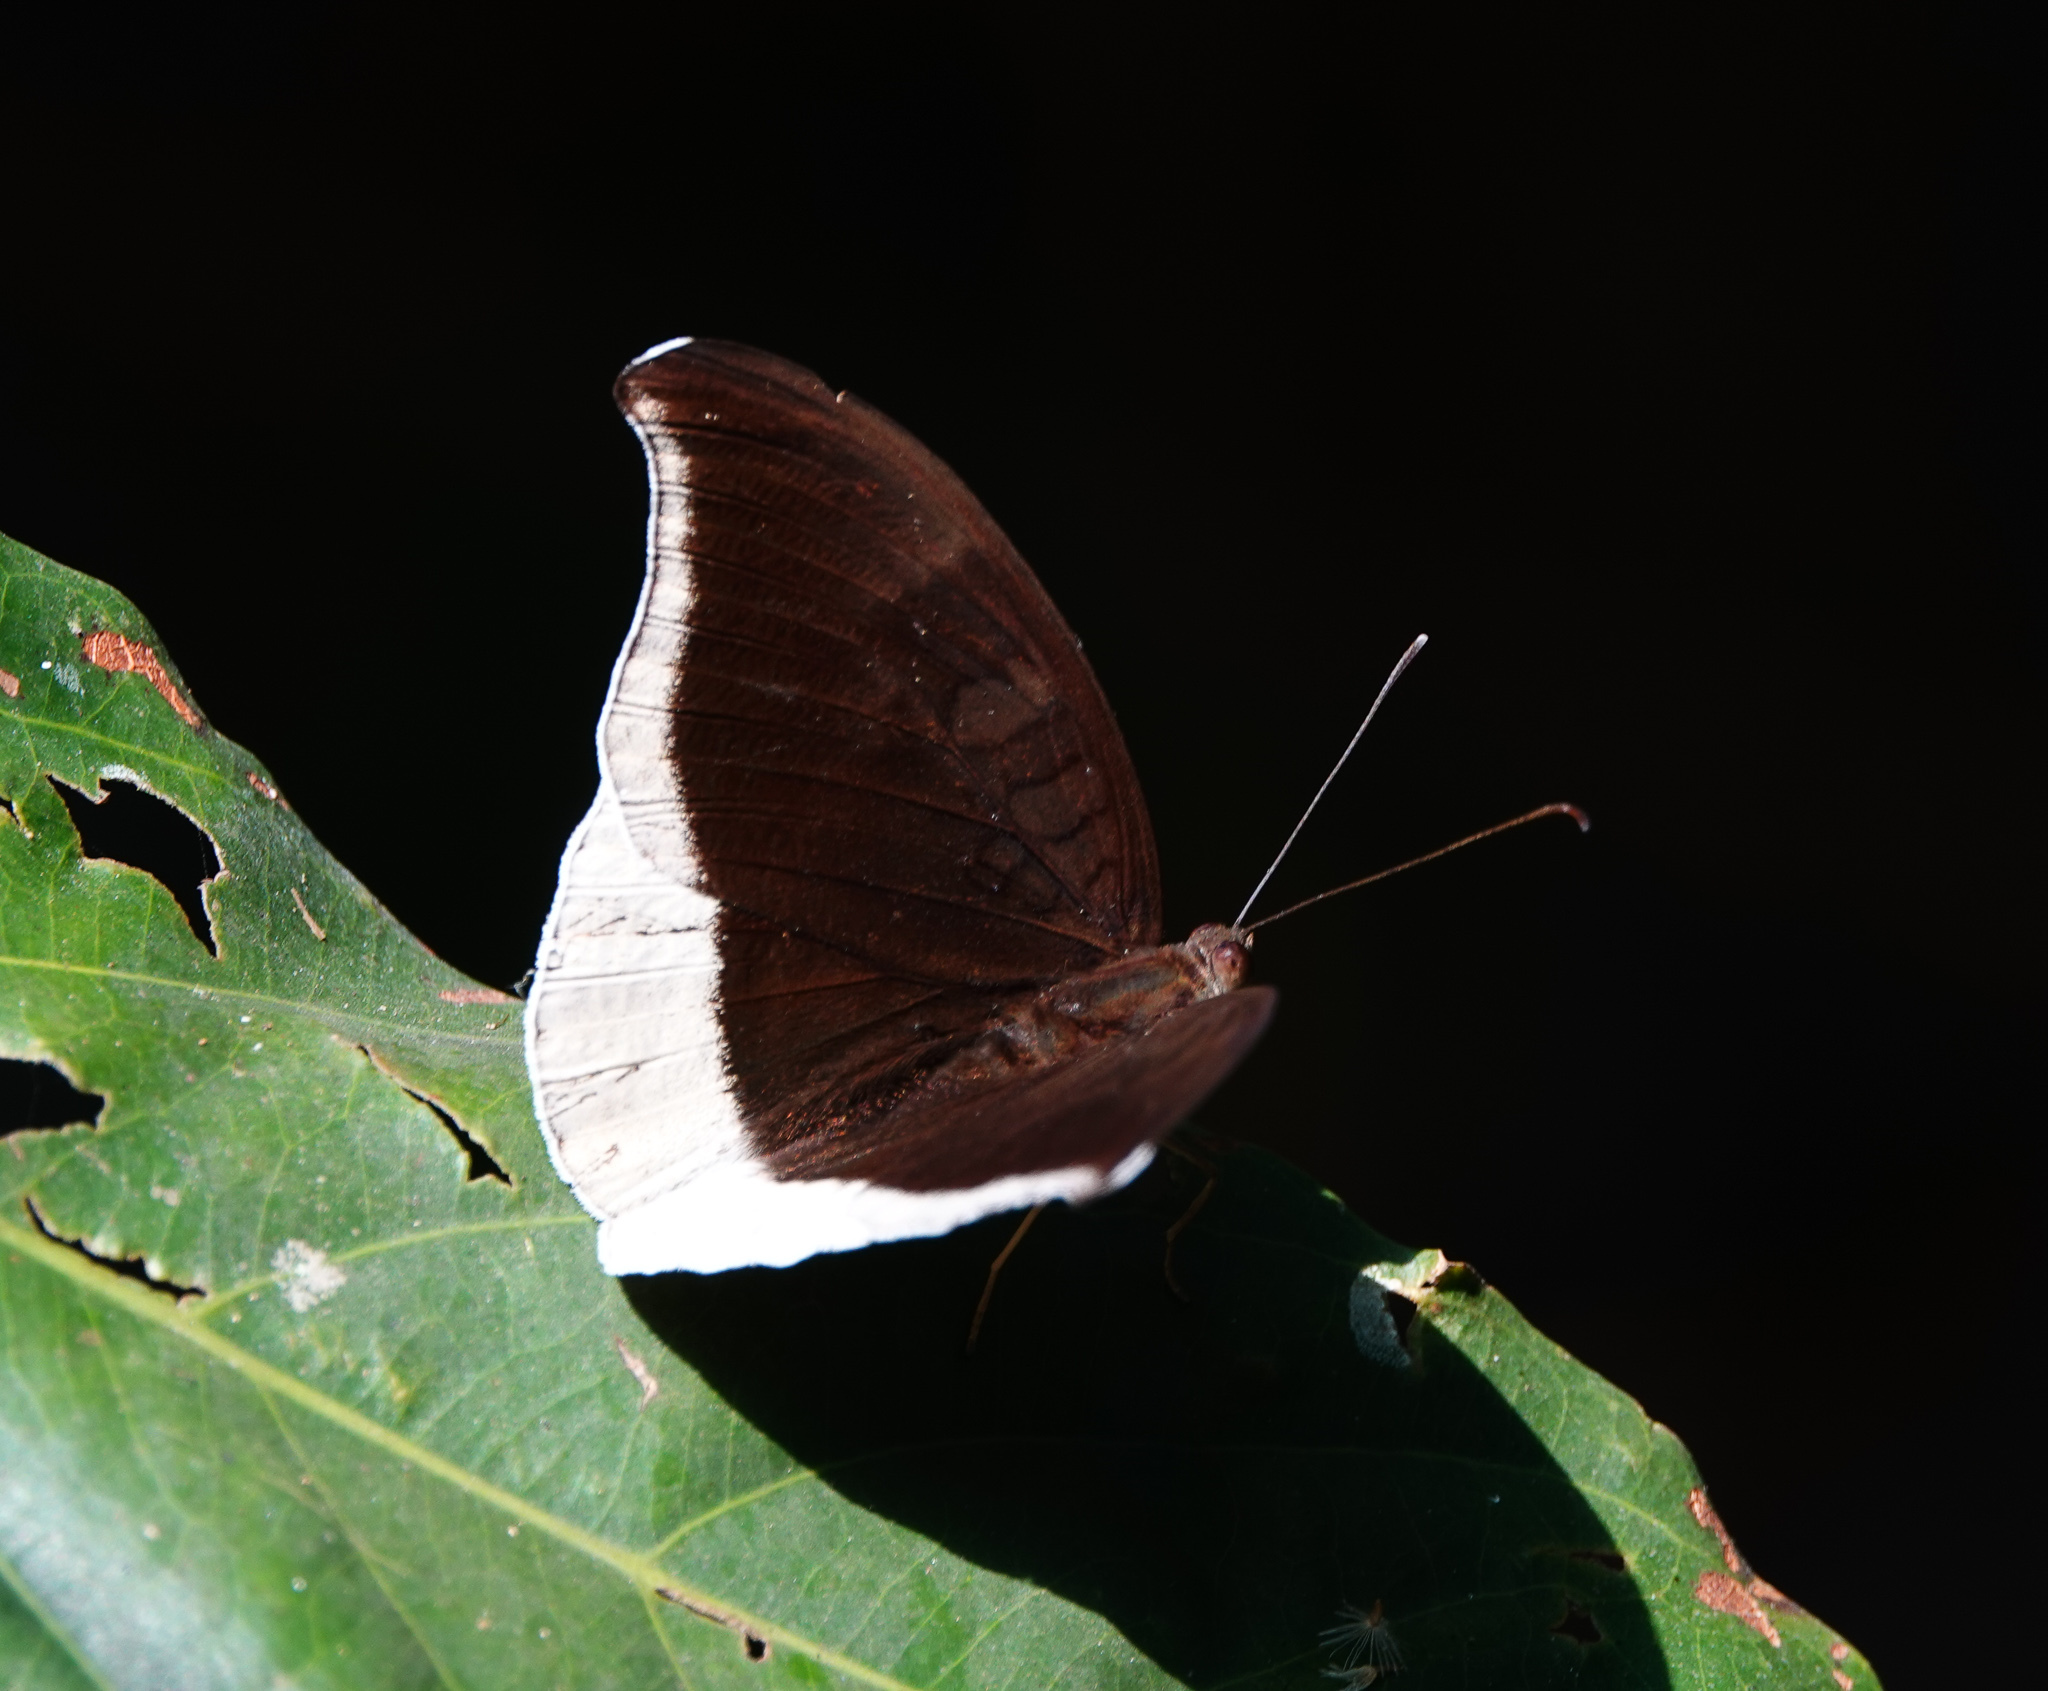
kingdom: Animalia
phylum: Arthropoda
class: Insecta
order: Lepidoptera
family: Nymphalidae
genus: Tanaecia
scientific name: Tanaecia lepidea
